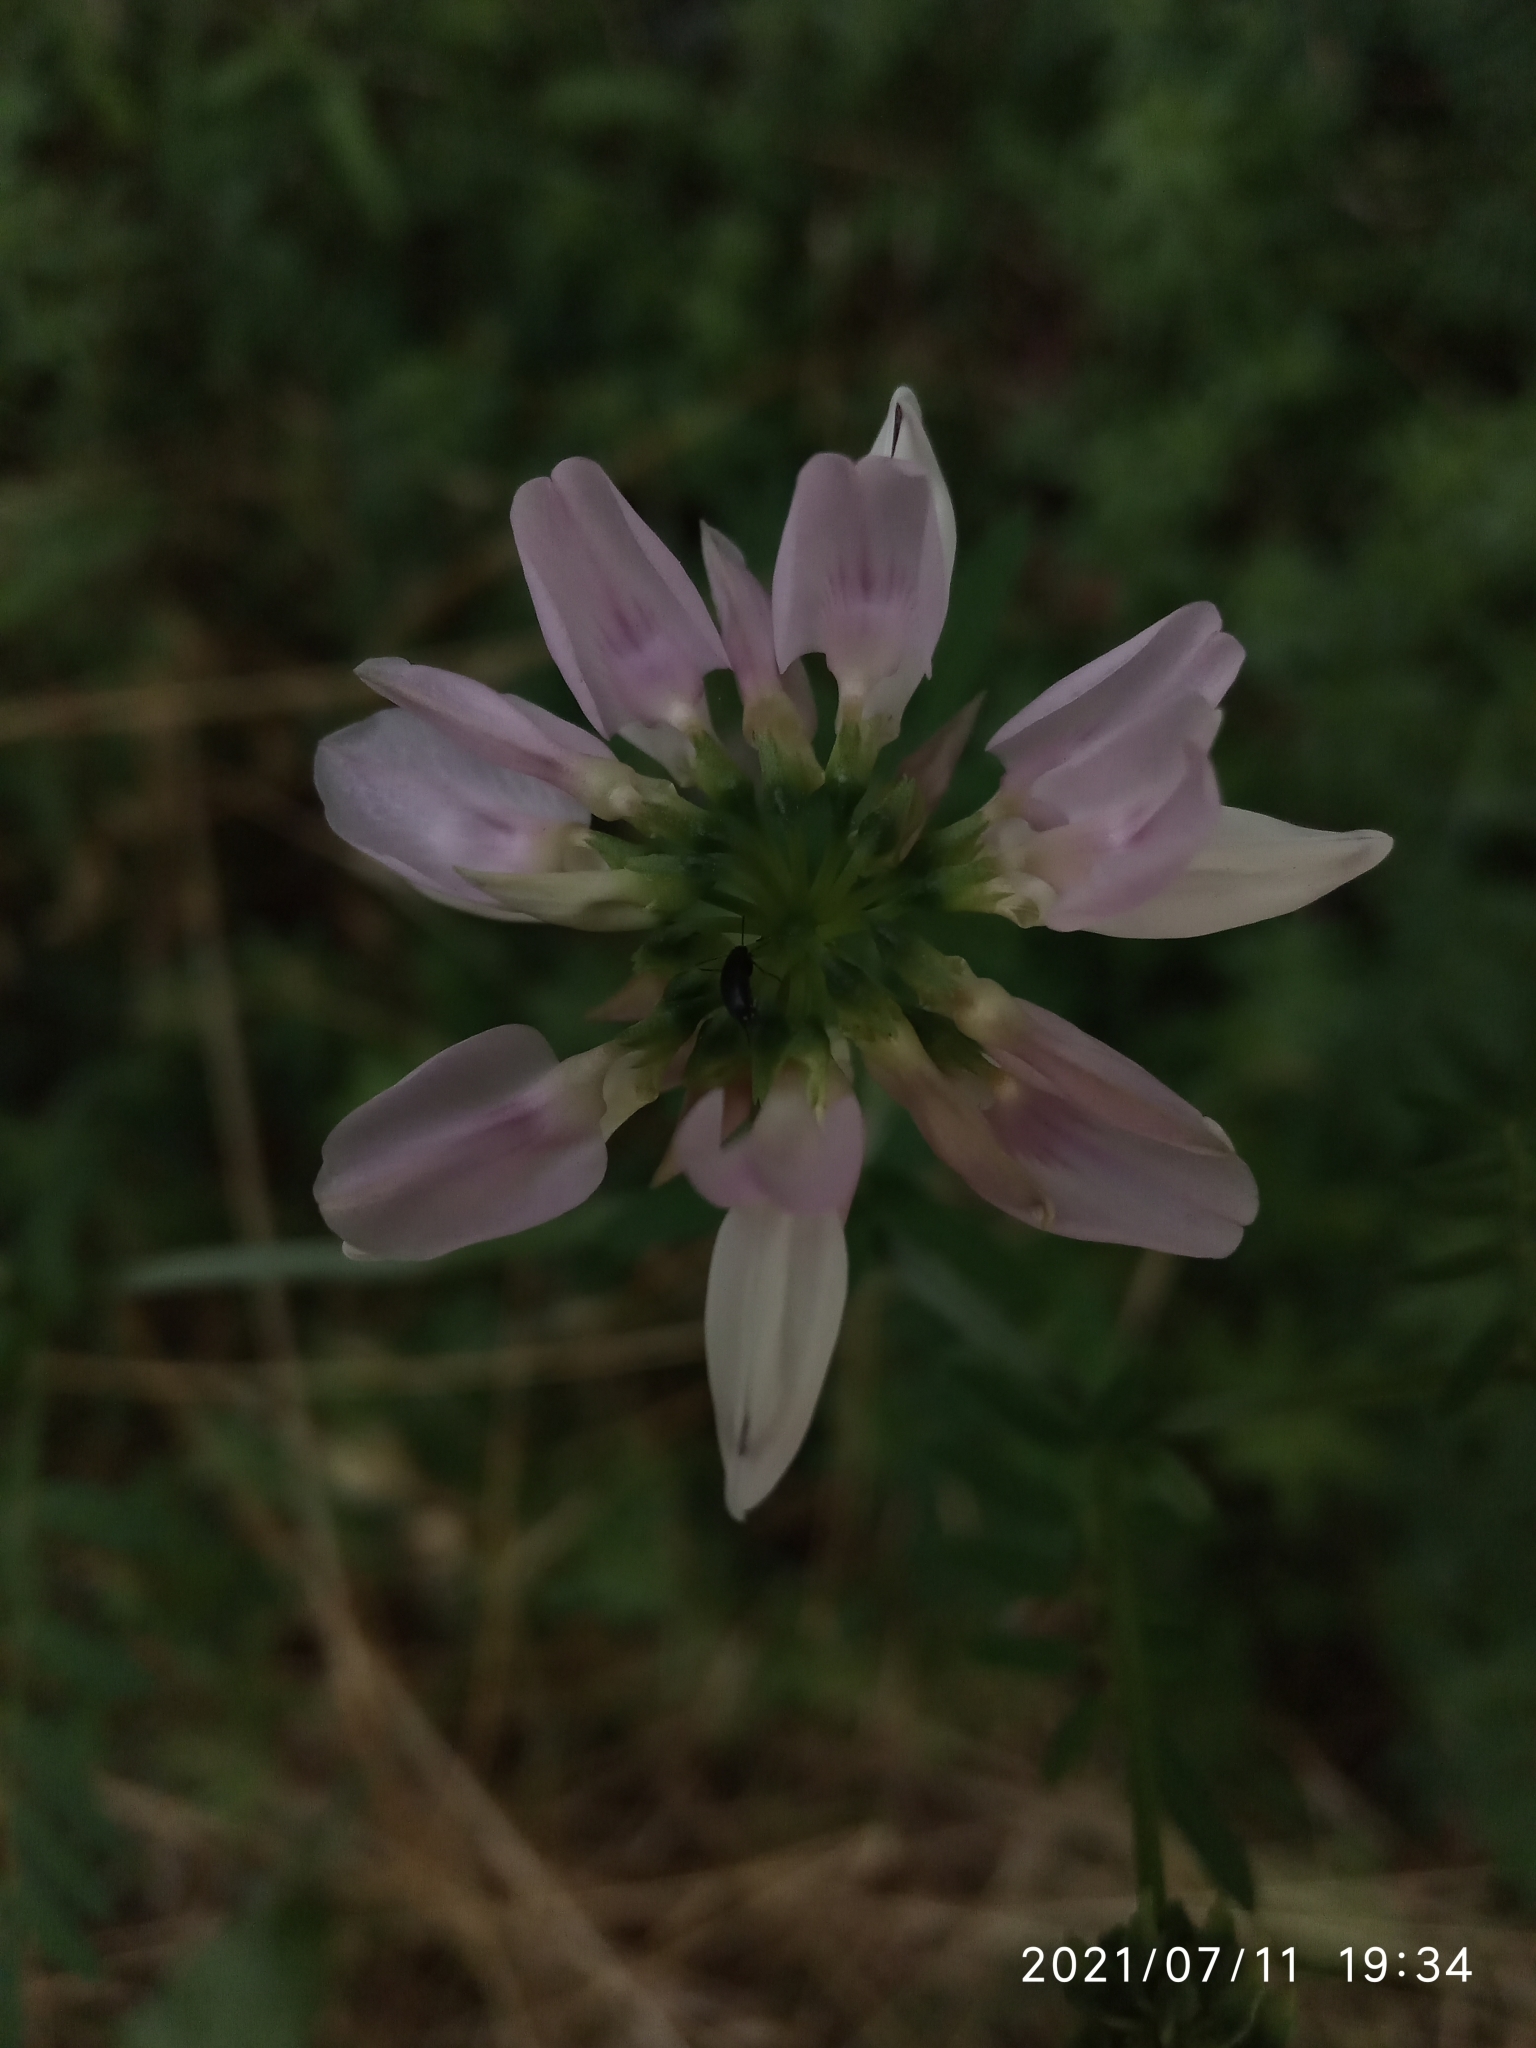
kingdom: Plantae
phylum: Tracheophyta
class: Magnoliopsida
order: Fabales
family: Fabaceae
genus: Coronilla
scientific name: Coronilla varia
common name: Crownvetch
